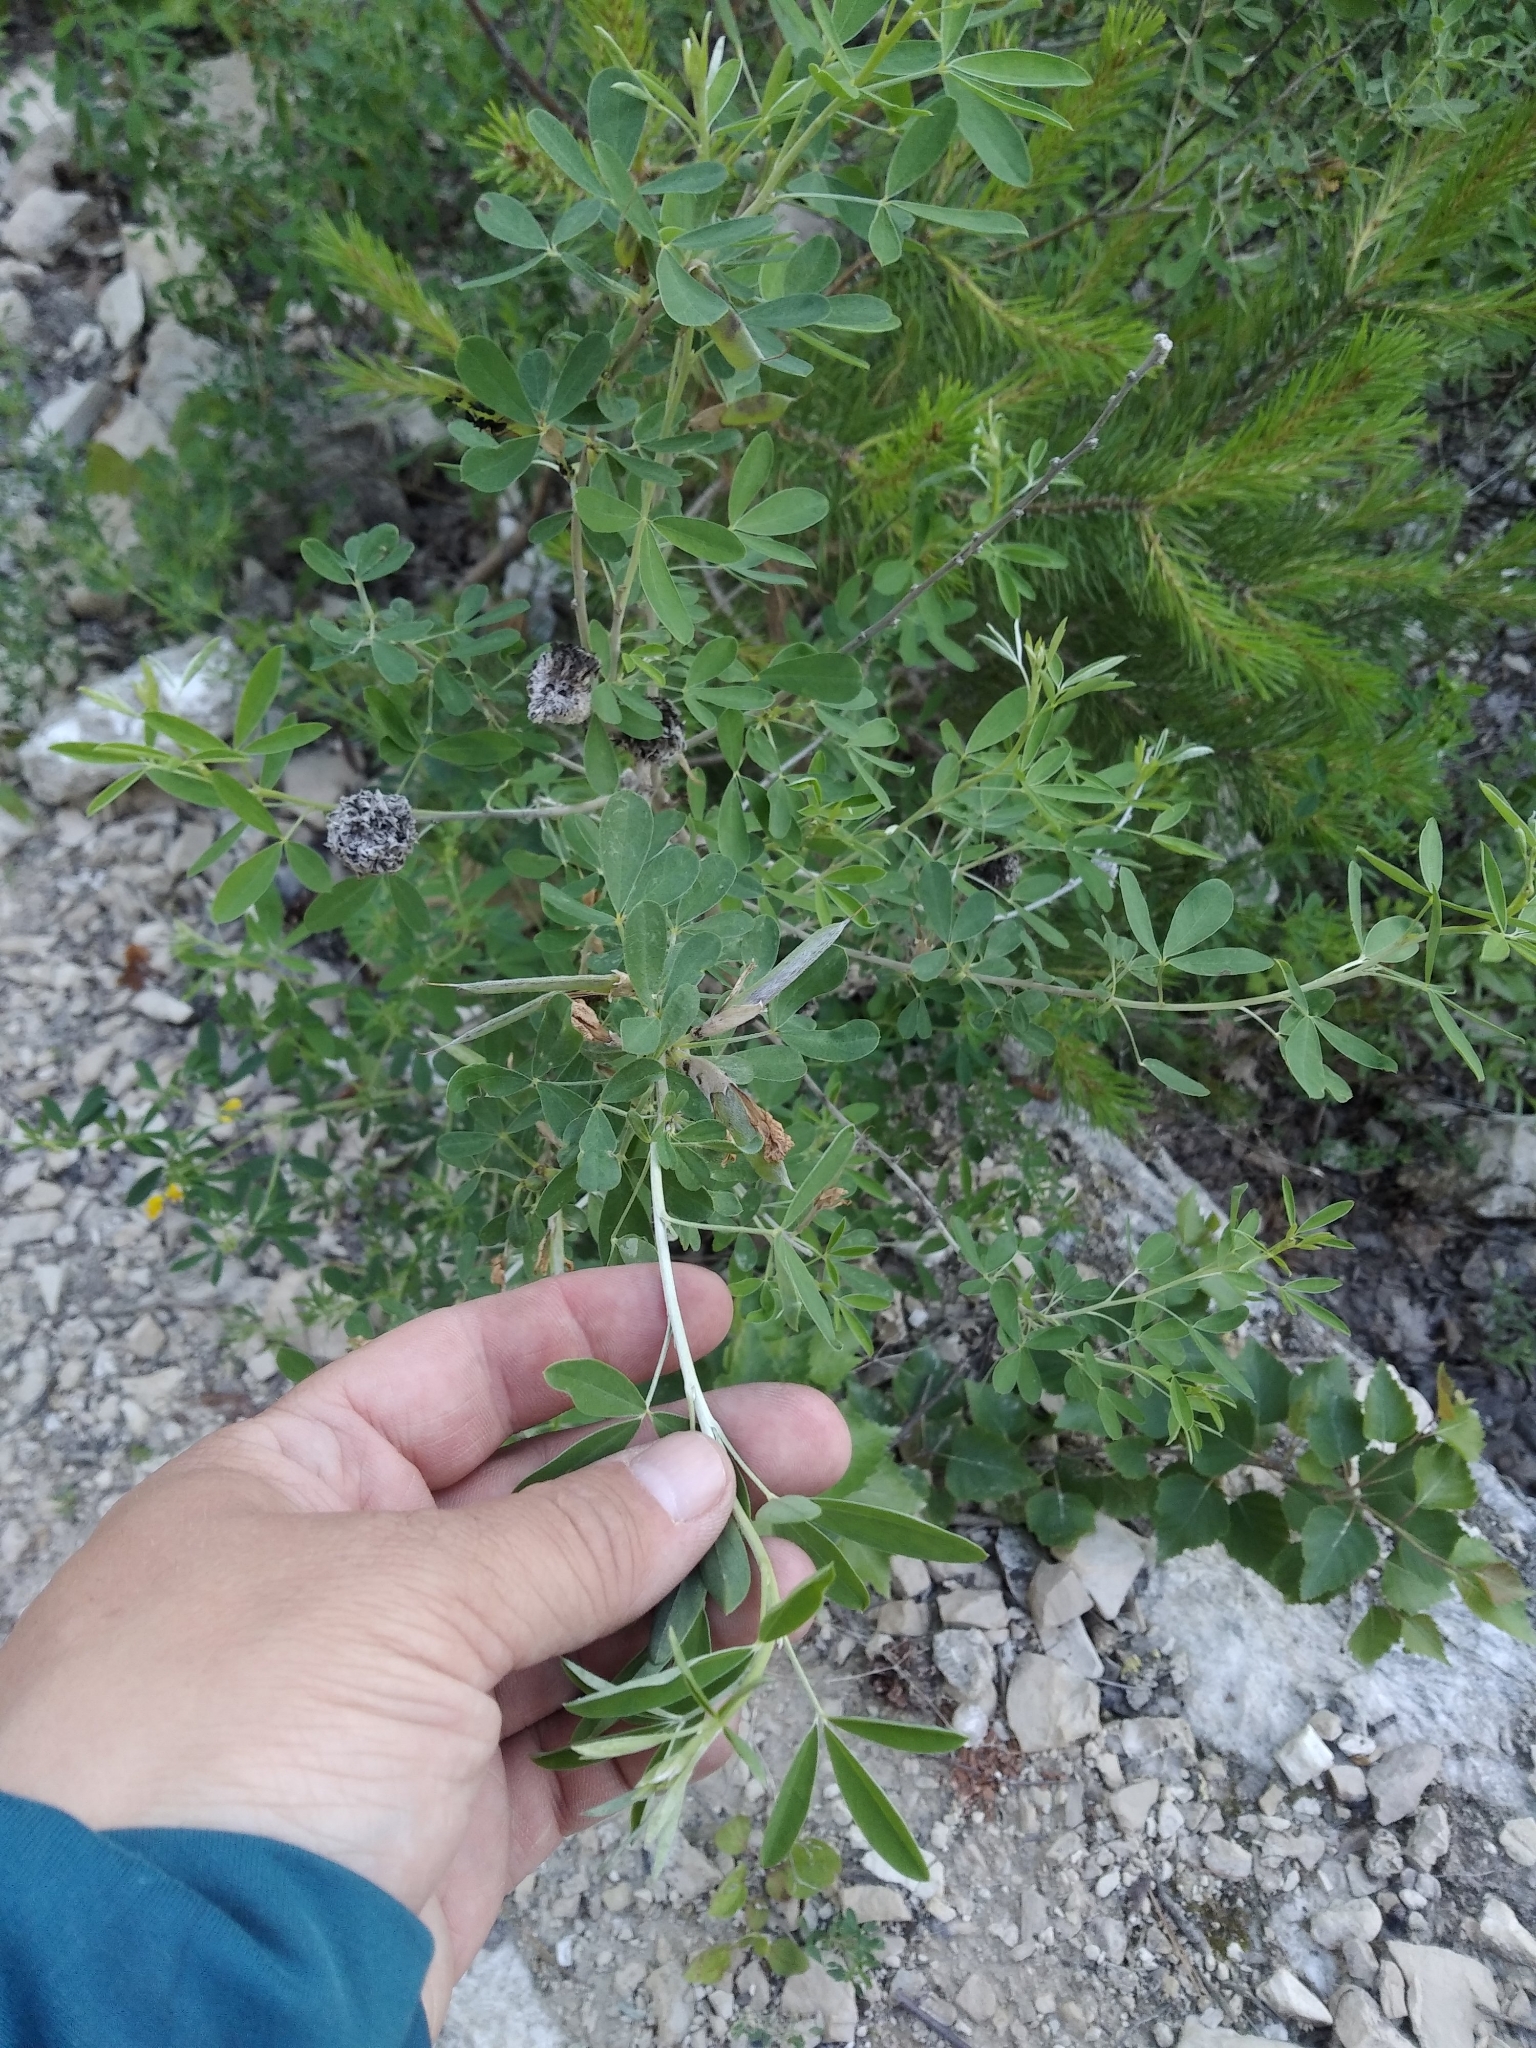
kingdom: Plantae
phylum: Tracheophyta
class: Magnoliopsida
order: Fabales
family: Fabaceae
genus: Chamaecytisus
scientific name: Chamaecytisus ruthenicus
